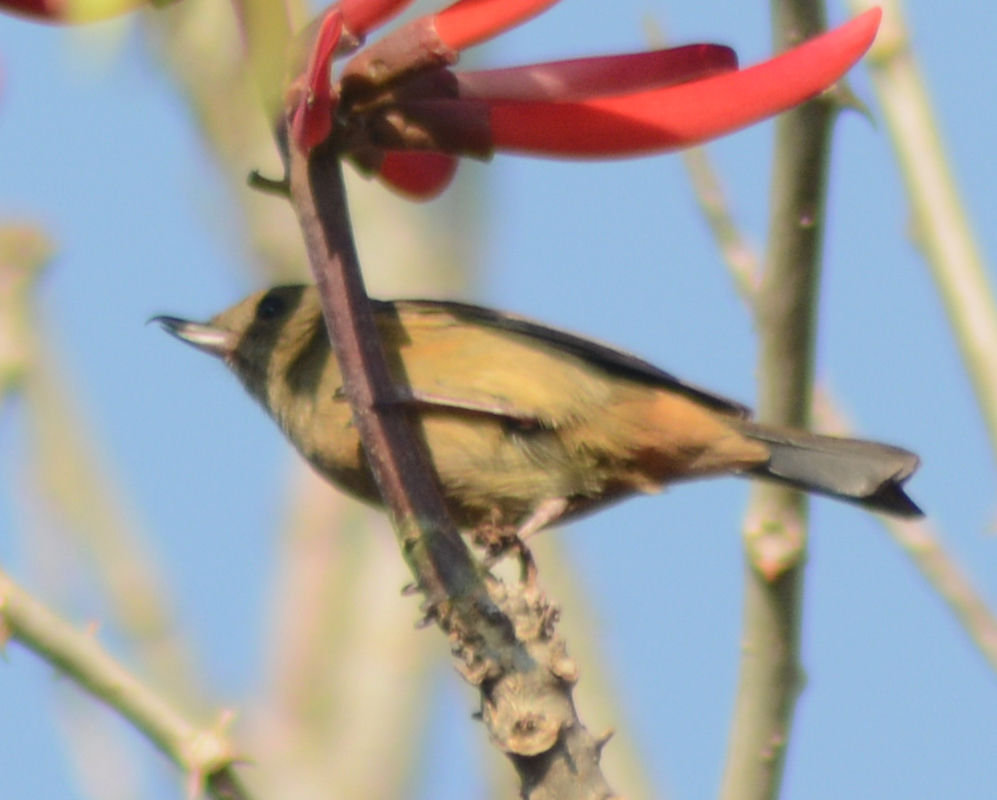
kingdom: Animalia
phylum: Chordata
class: Aves
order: Passeriformes
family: Thraupidae
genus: Diglossa
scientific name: Diglossa baritula
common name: Cinnamon-bellied flowerpiercer
